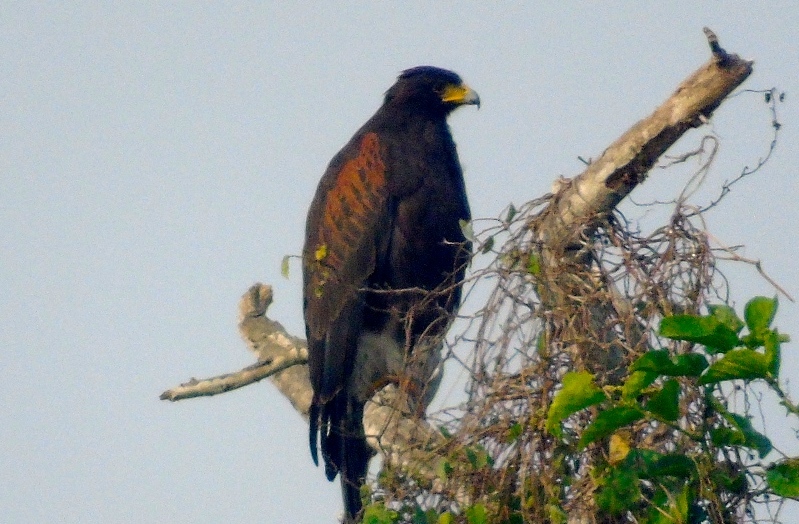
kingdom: Animalia
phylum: Chordata
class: Aves
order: Accipitriformes
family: Accipitridae
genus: Parabuteo
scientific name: Parabuteo unicinctus
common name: Harris's hawk
